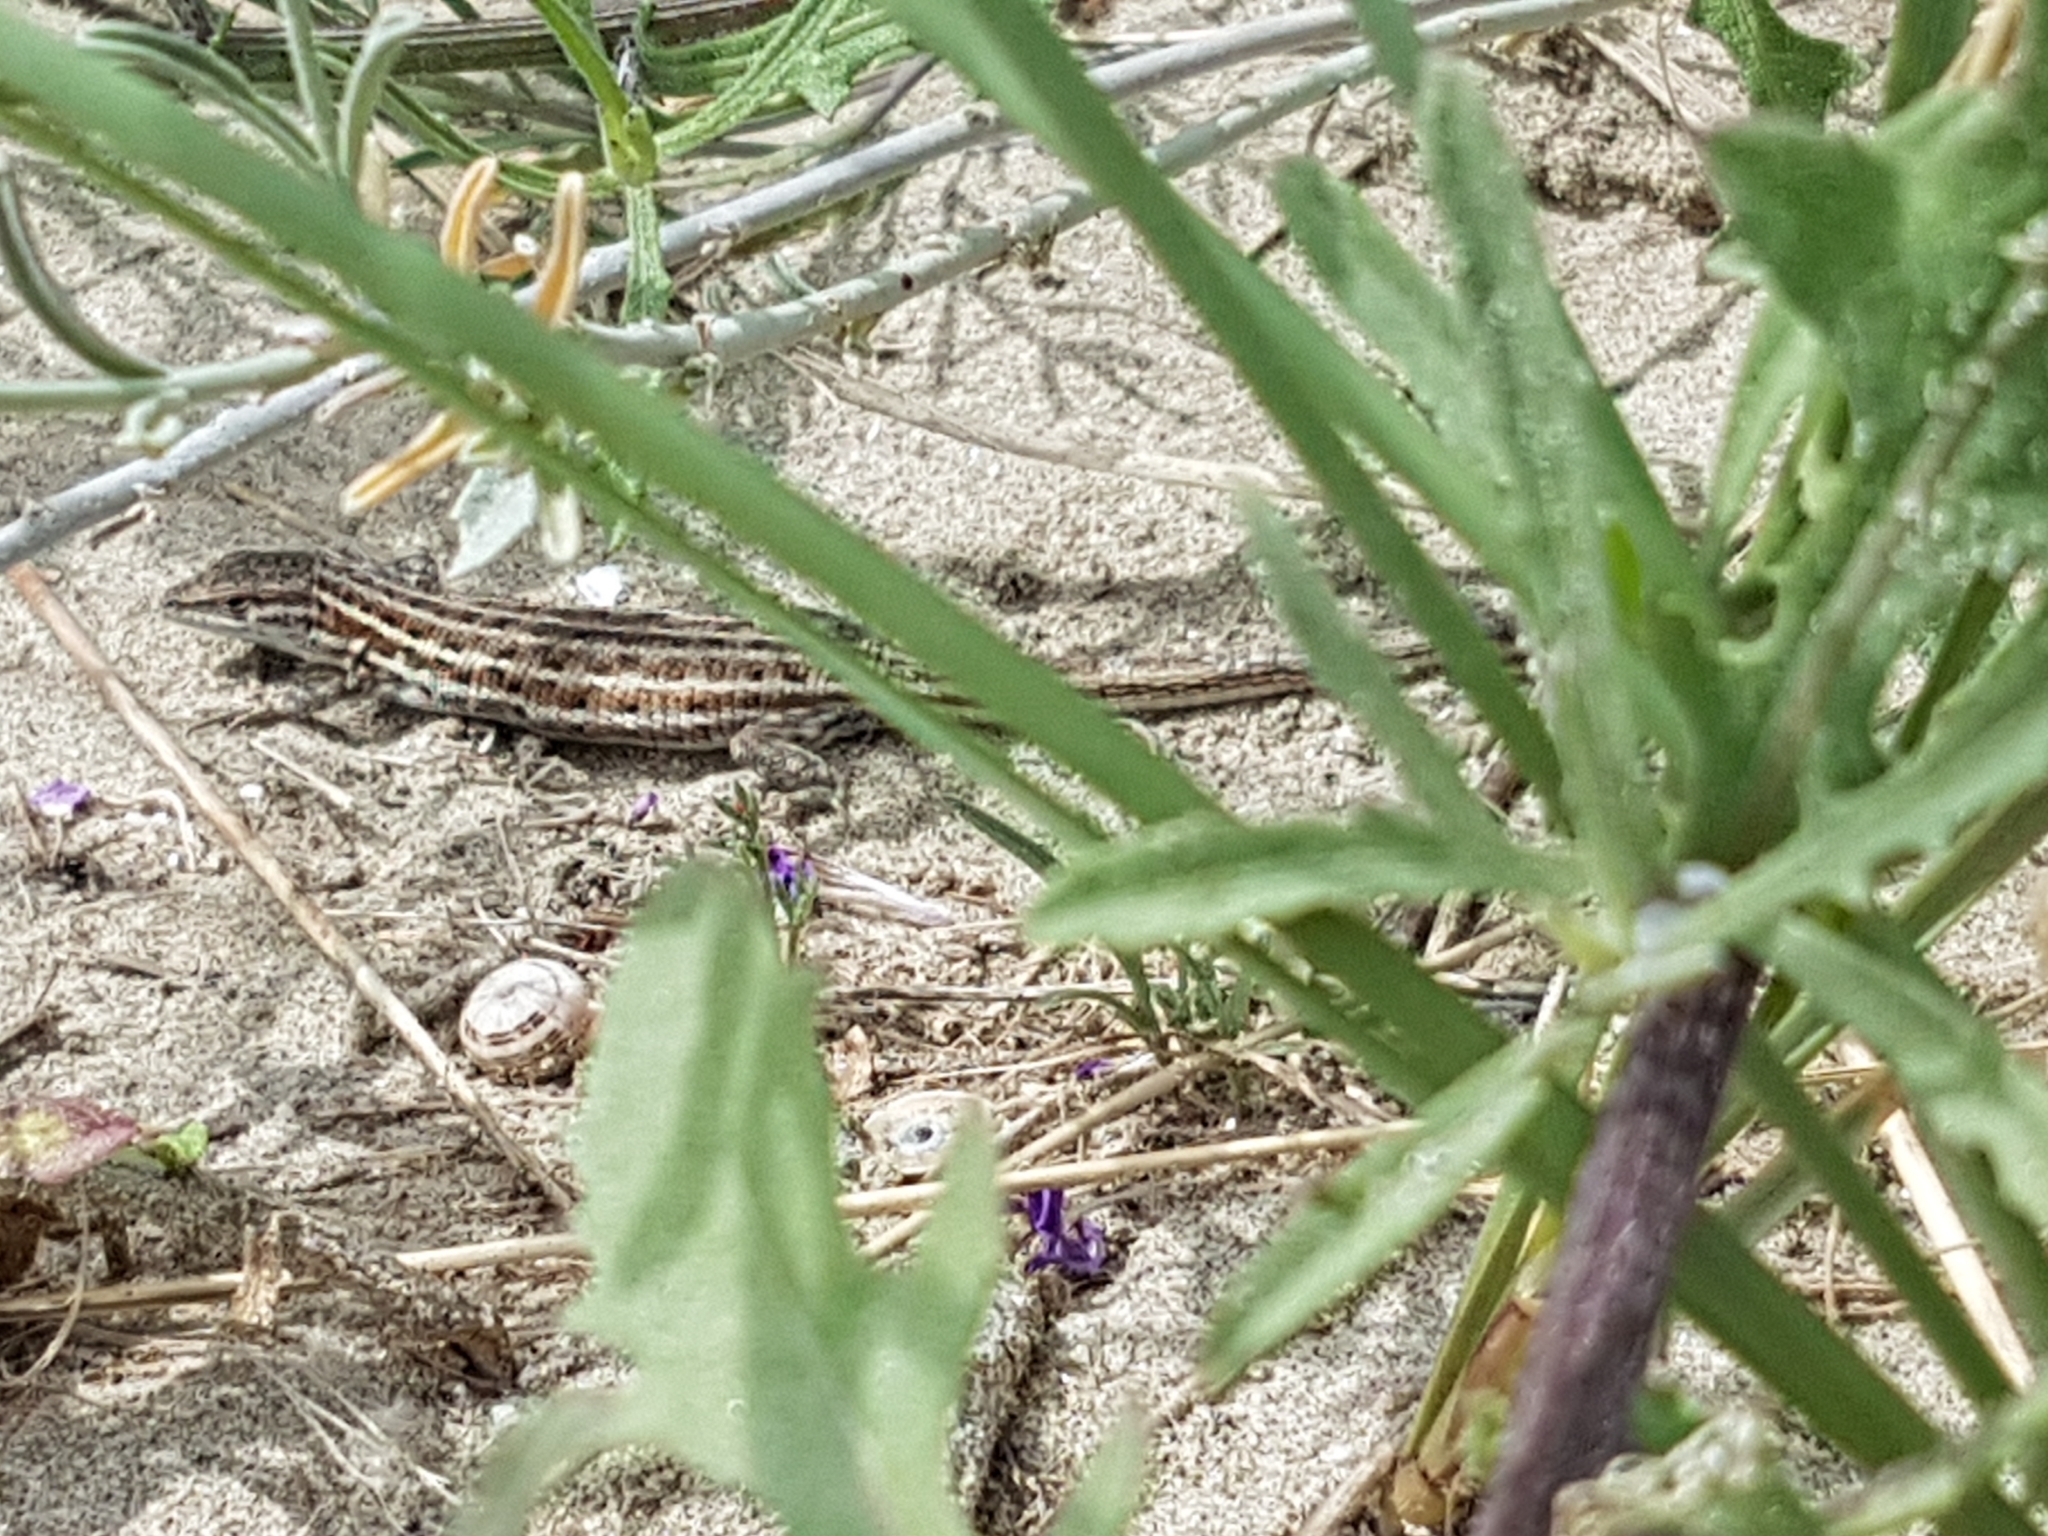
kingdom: Animalia
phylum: Chordata
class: Squamata
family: Lacertidae
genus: Psammodromus
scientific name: Psammodromus edwarsianus
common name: East iberian psammodromus
